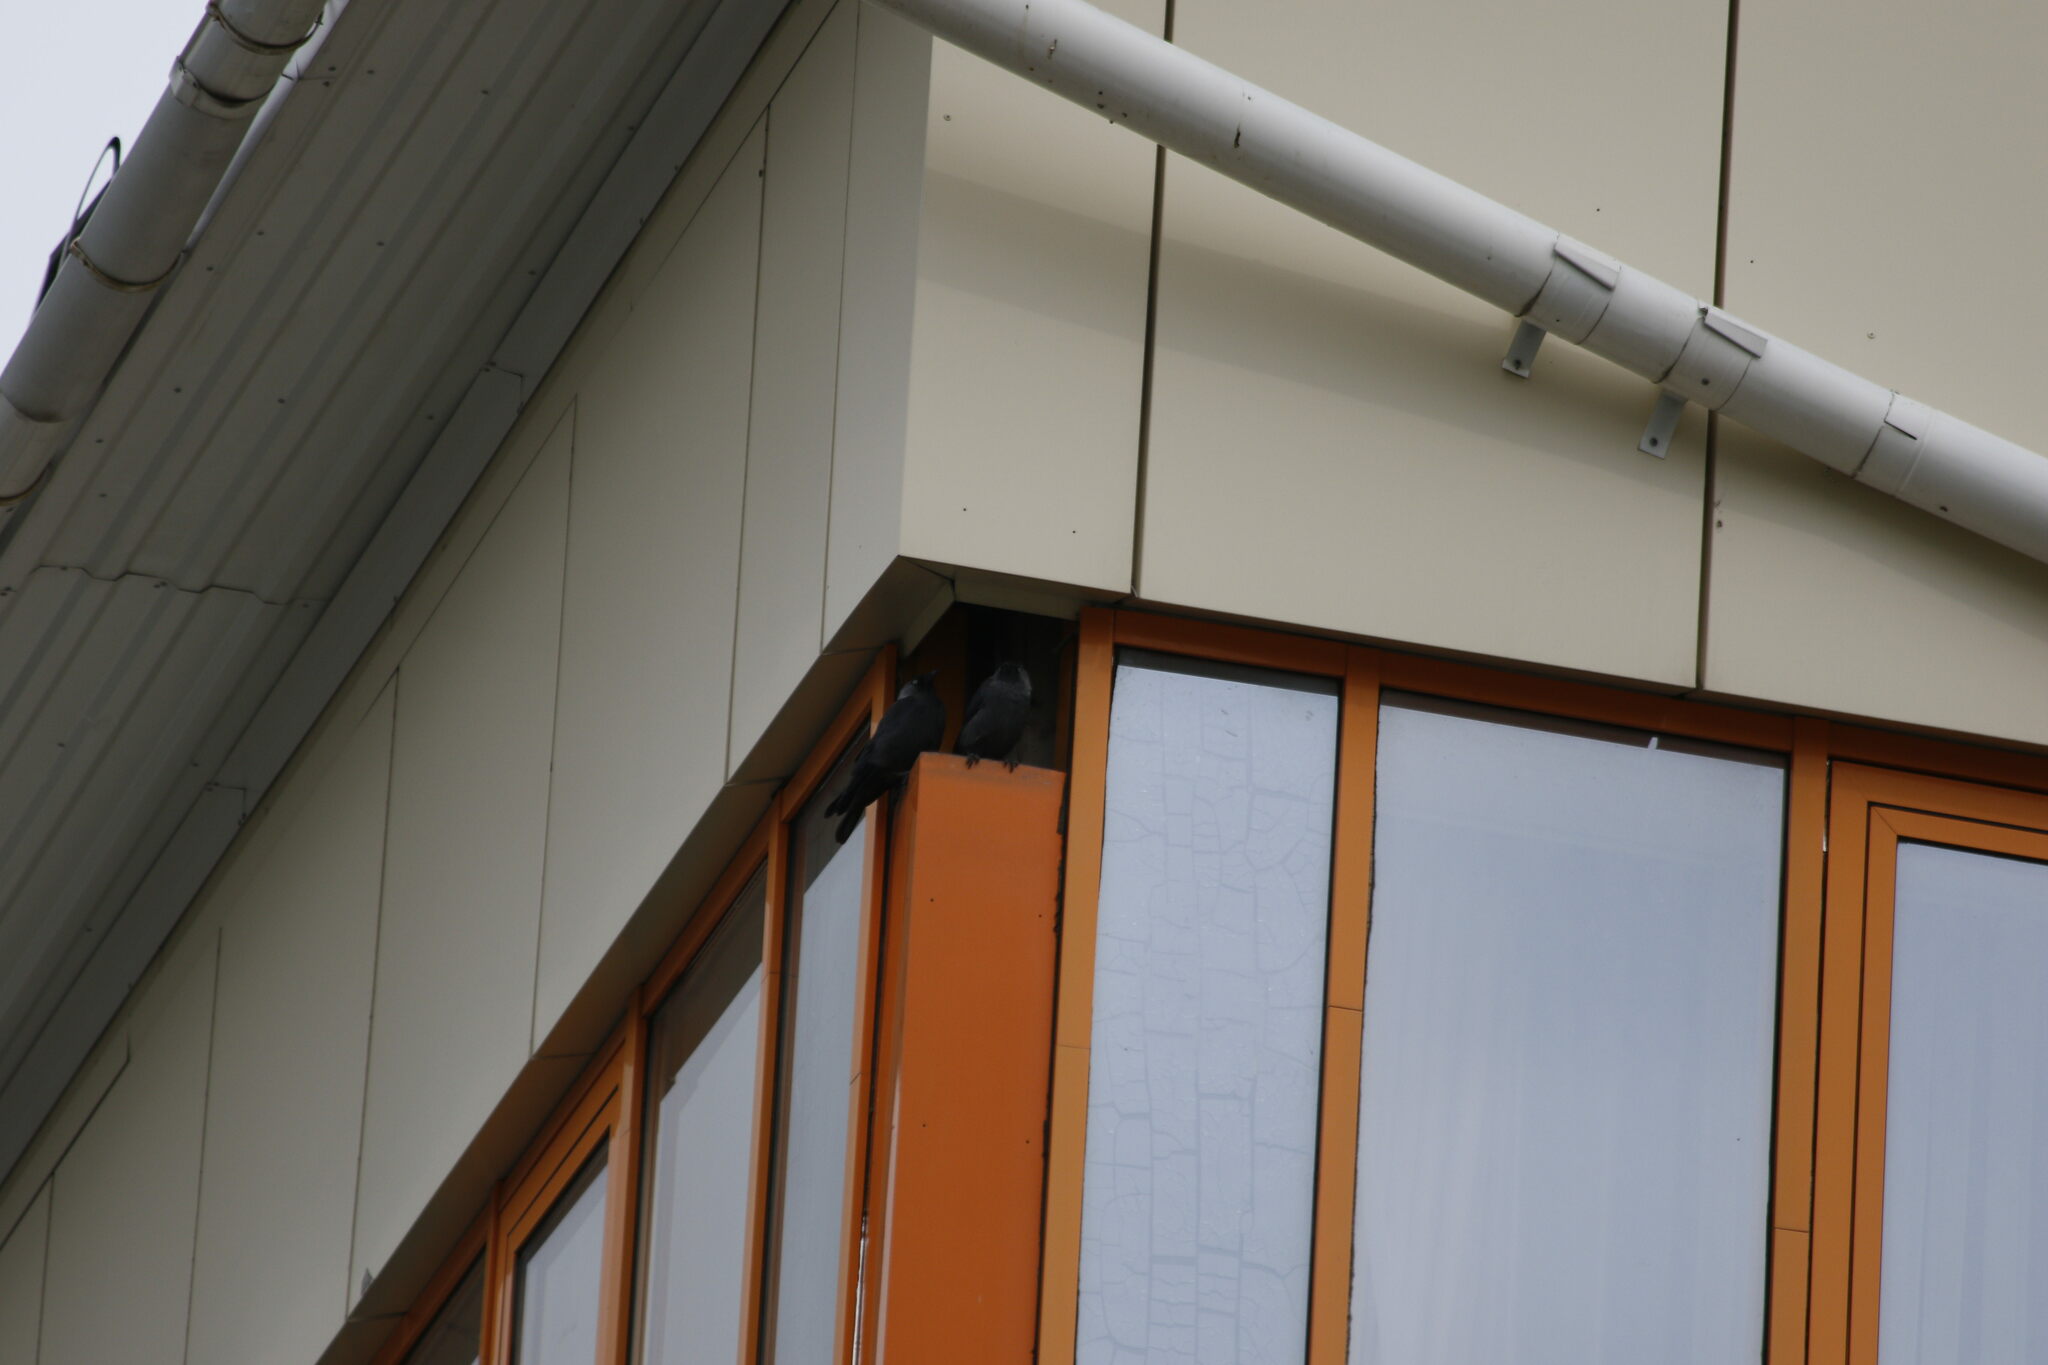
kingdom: Animalia
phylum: Chordata
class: Aves
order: Passeriformes
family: Corvidae
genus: Coloeus
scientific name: Coloeus monedula
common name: Western jackdaw
